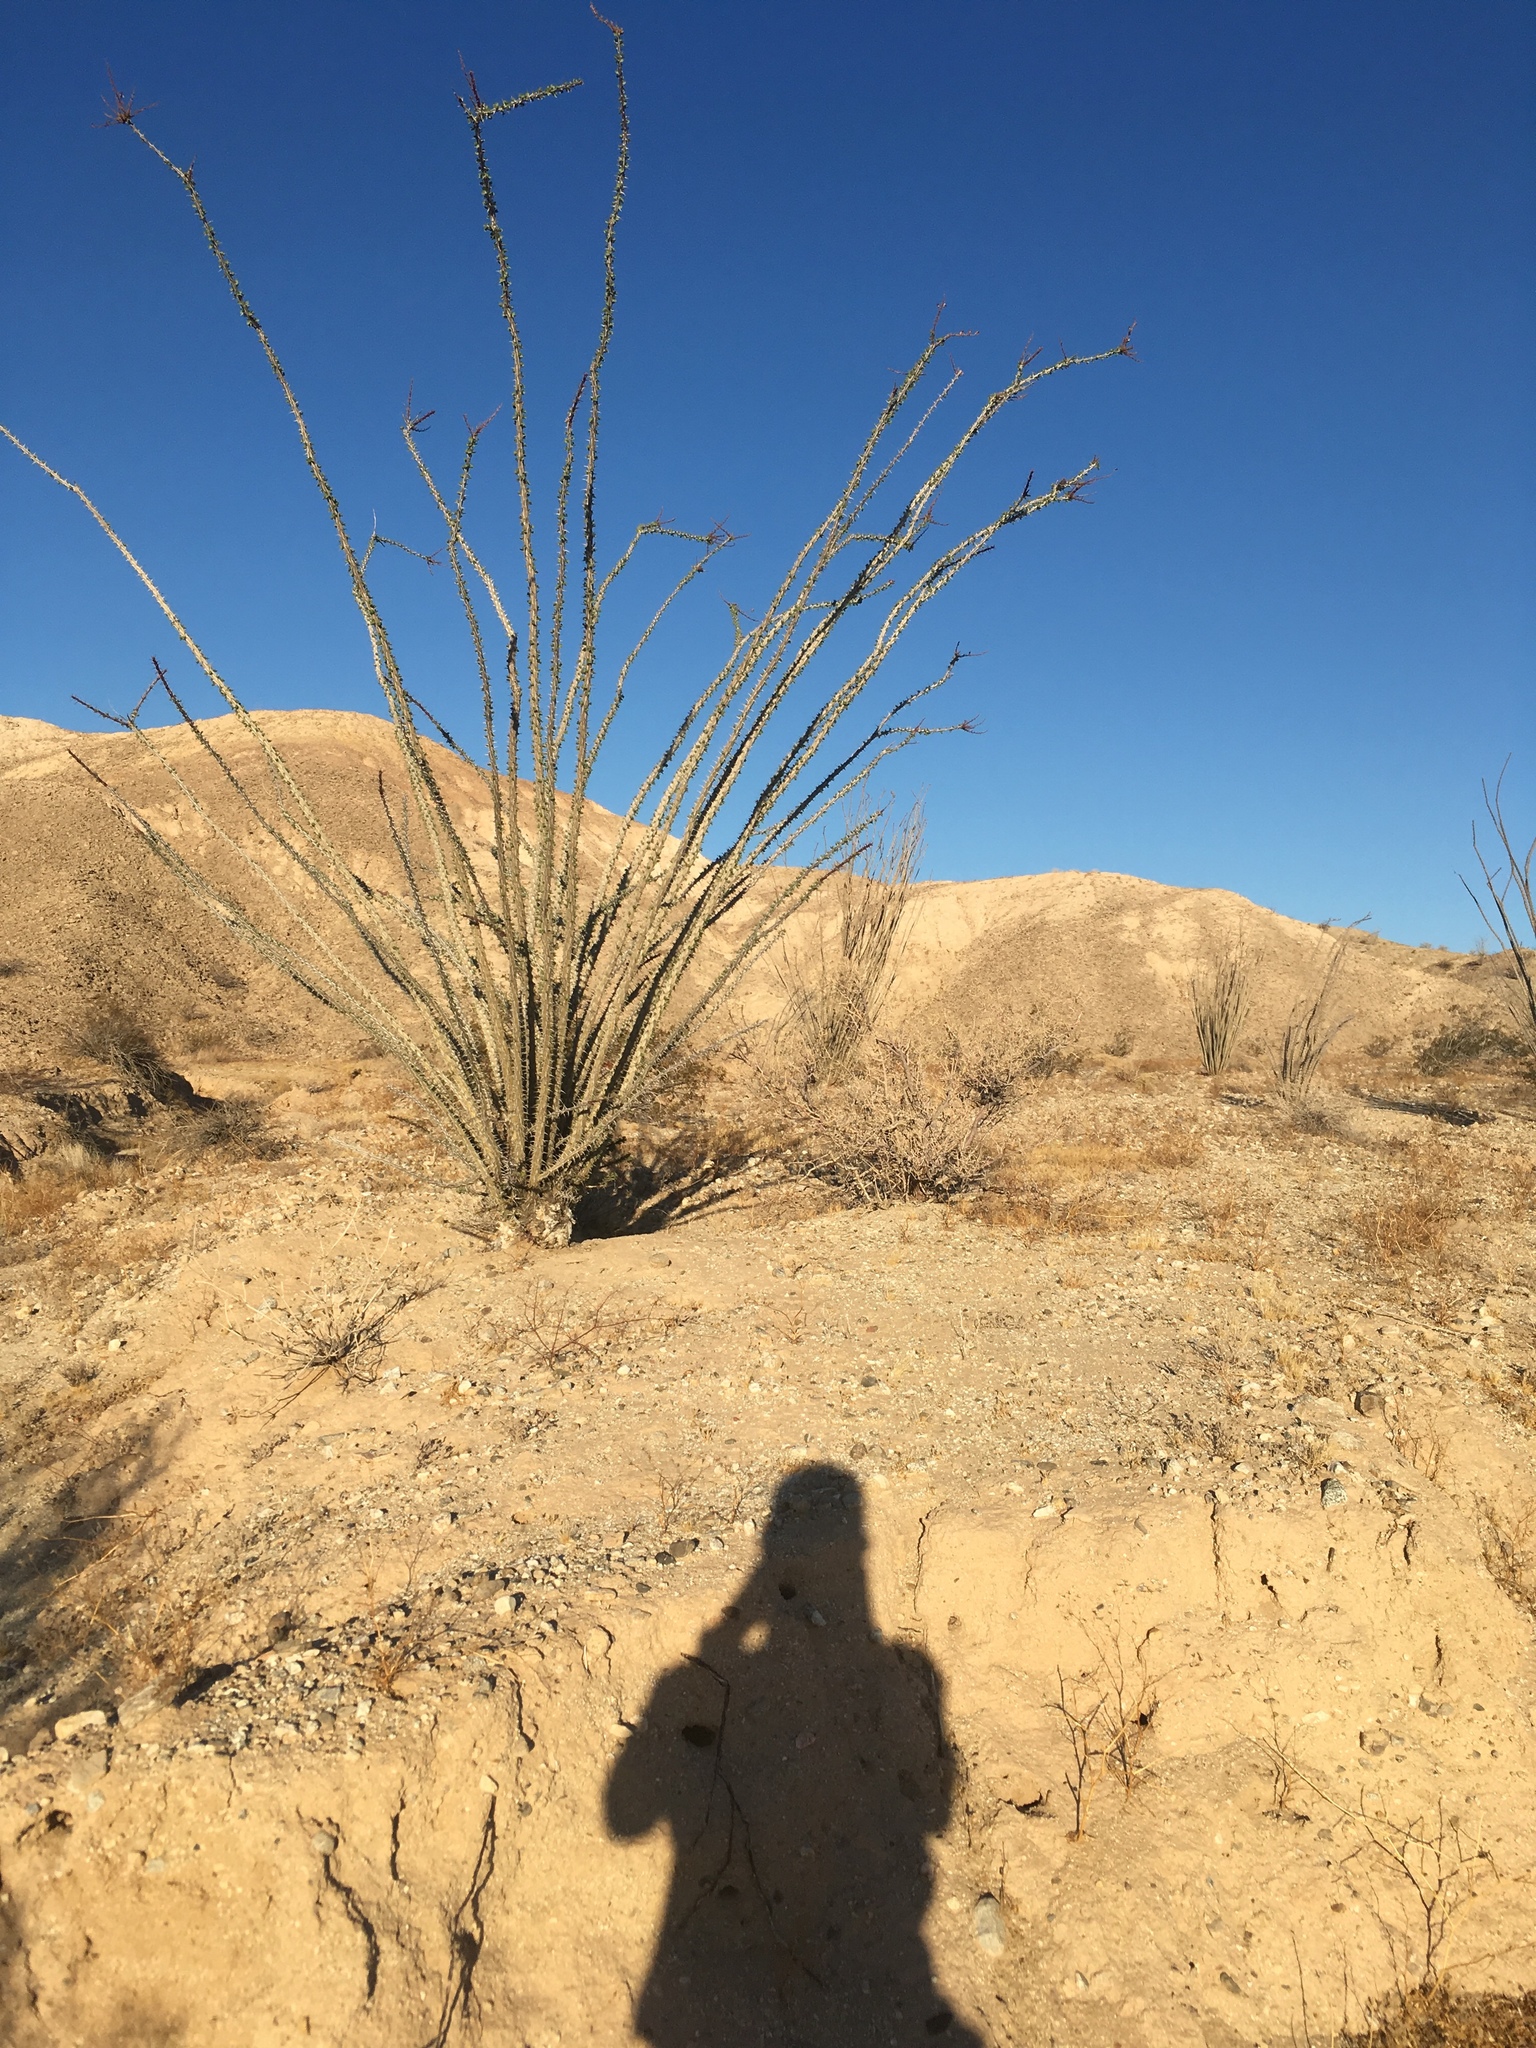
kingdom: Plantae
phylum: Tracheophyta
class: Magnoliopsida
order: Ericales
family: Fouquieriaceae
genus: Fouquieria
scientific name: Fouquieria splendens
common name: Vine-cactus
